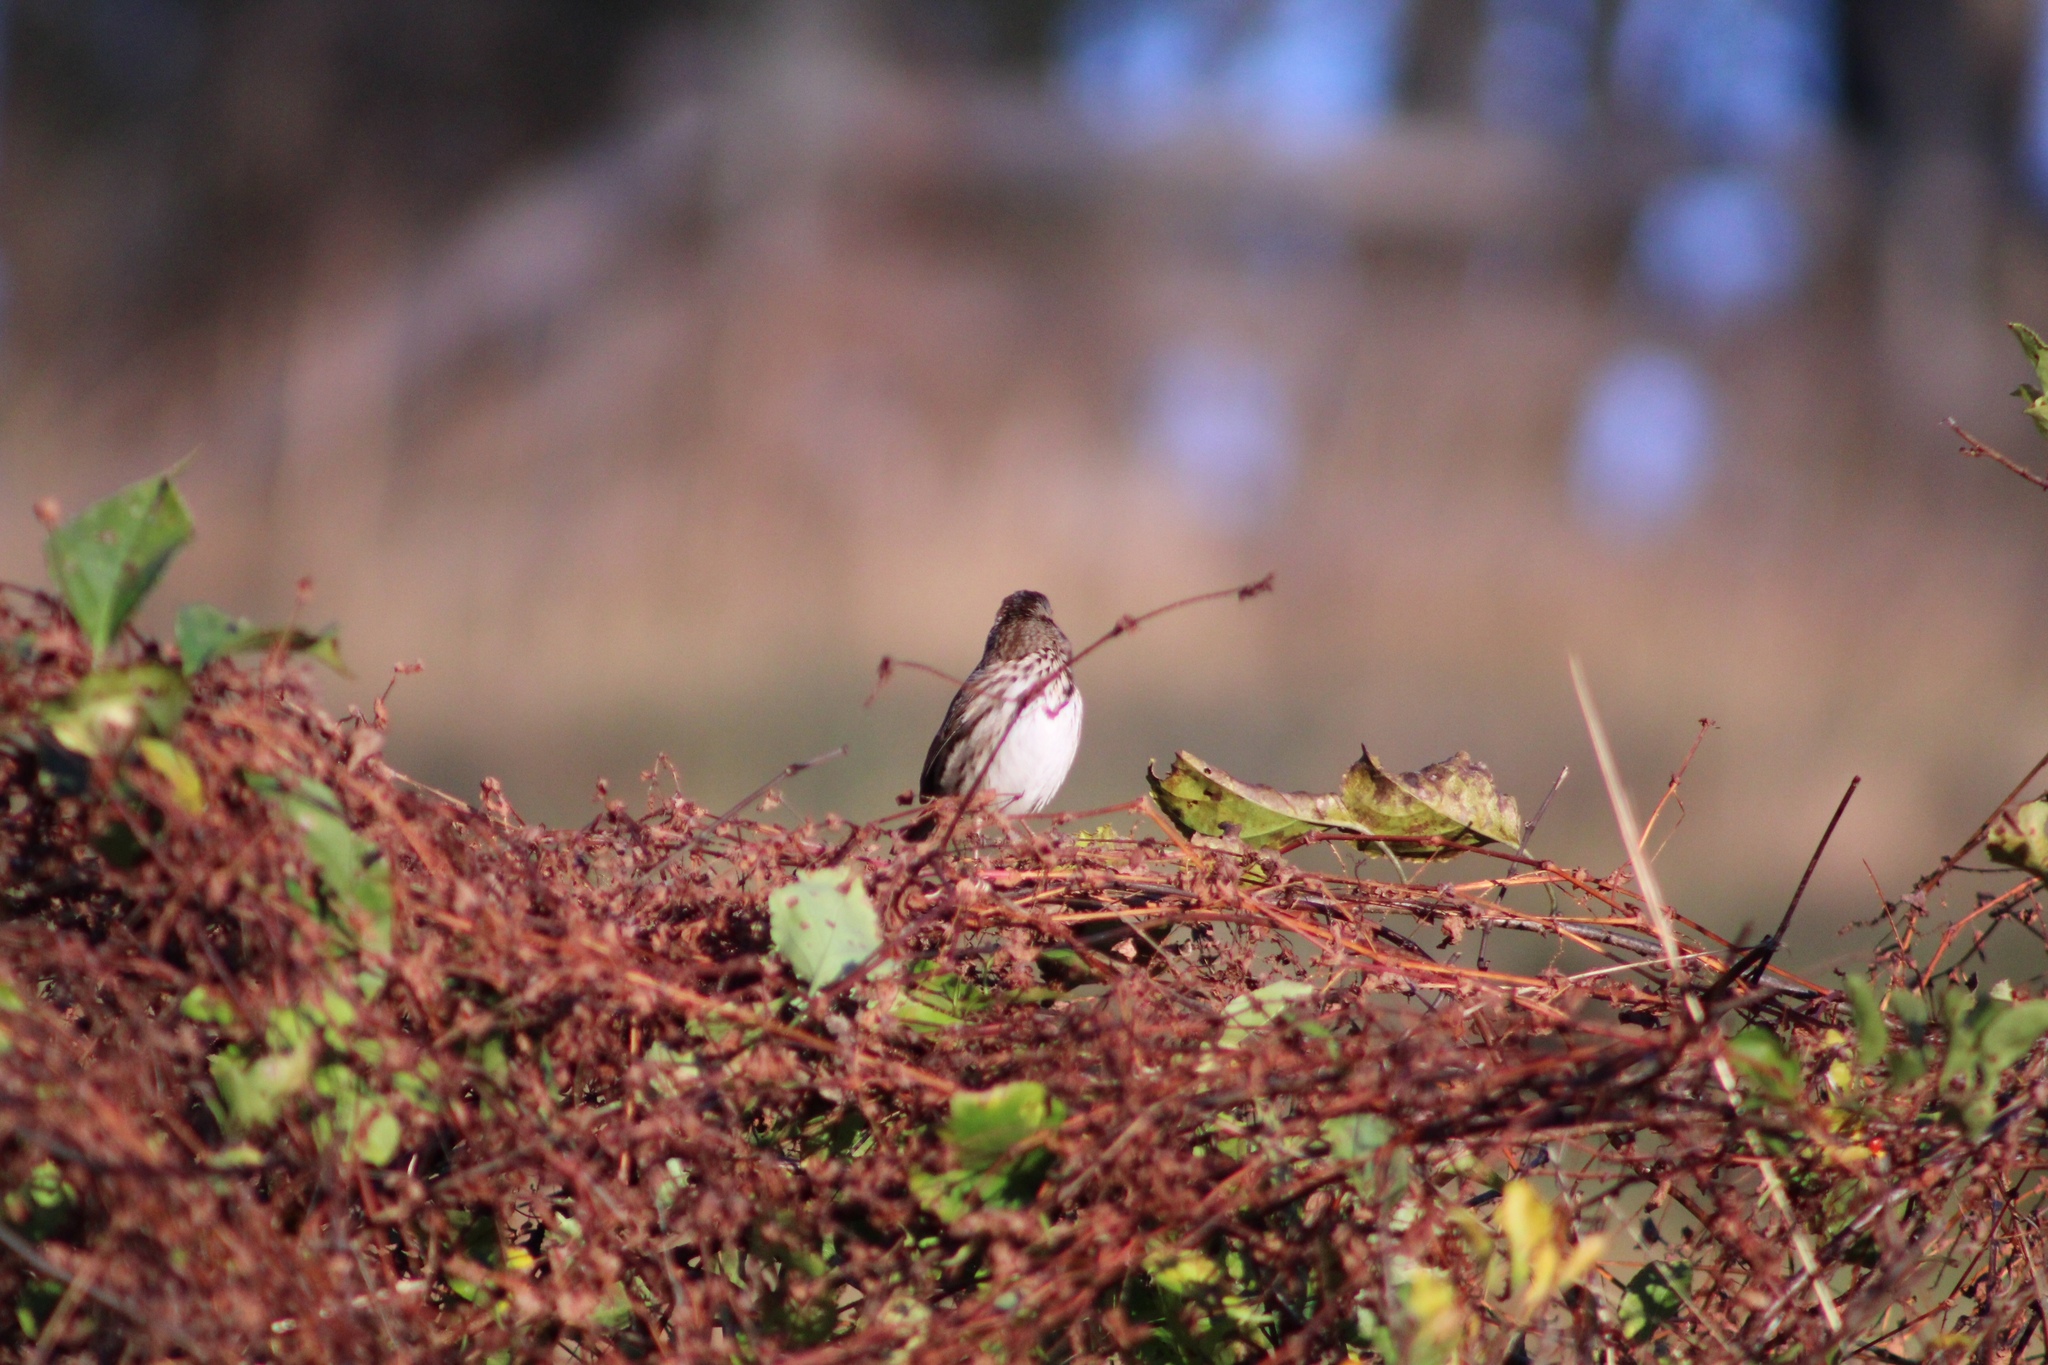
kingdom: Animalia
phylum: Chordata
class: Aves
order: Passeriformes
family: Passerellidae
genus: Melospiza
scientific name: Melospiza melodia
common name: Song sparrow
